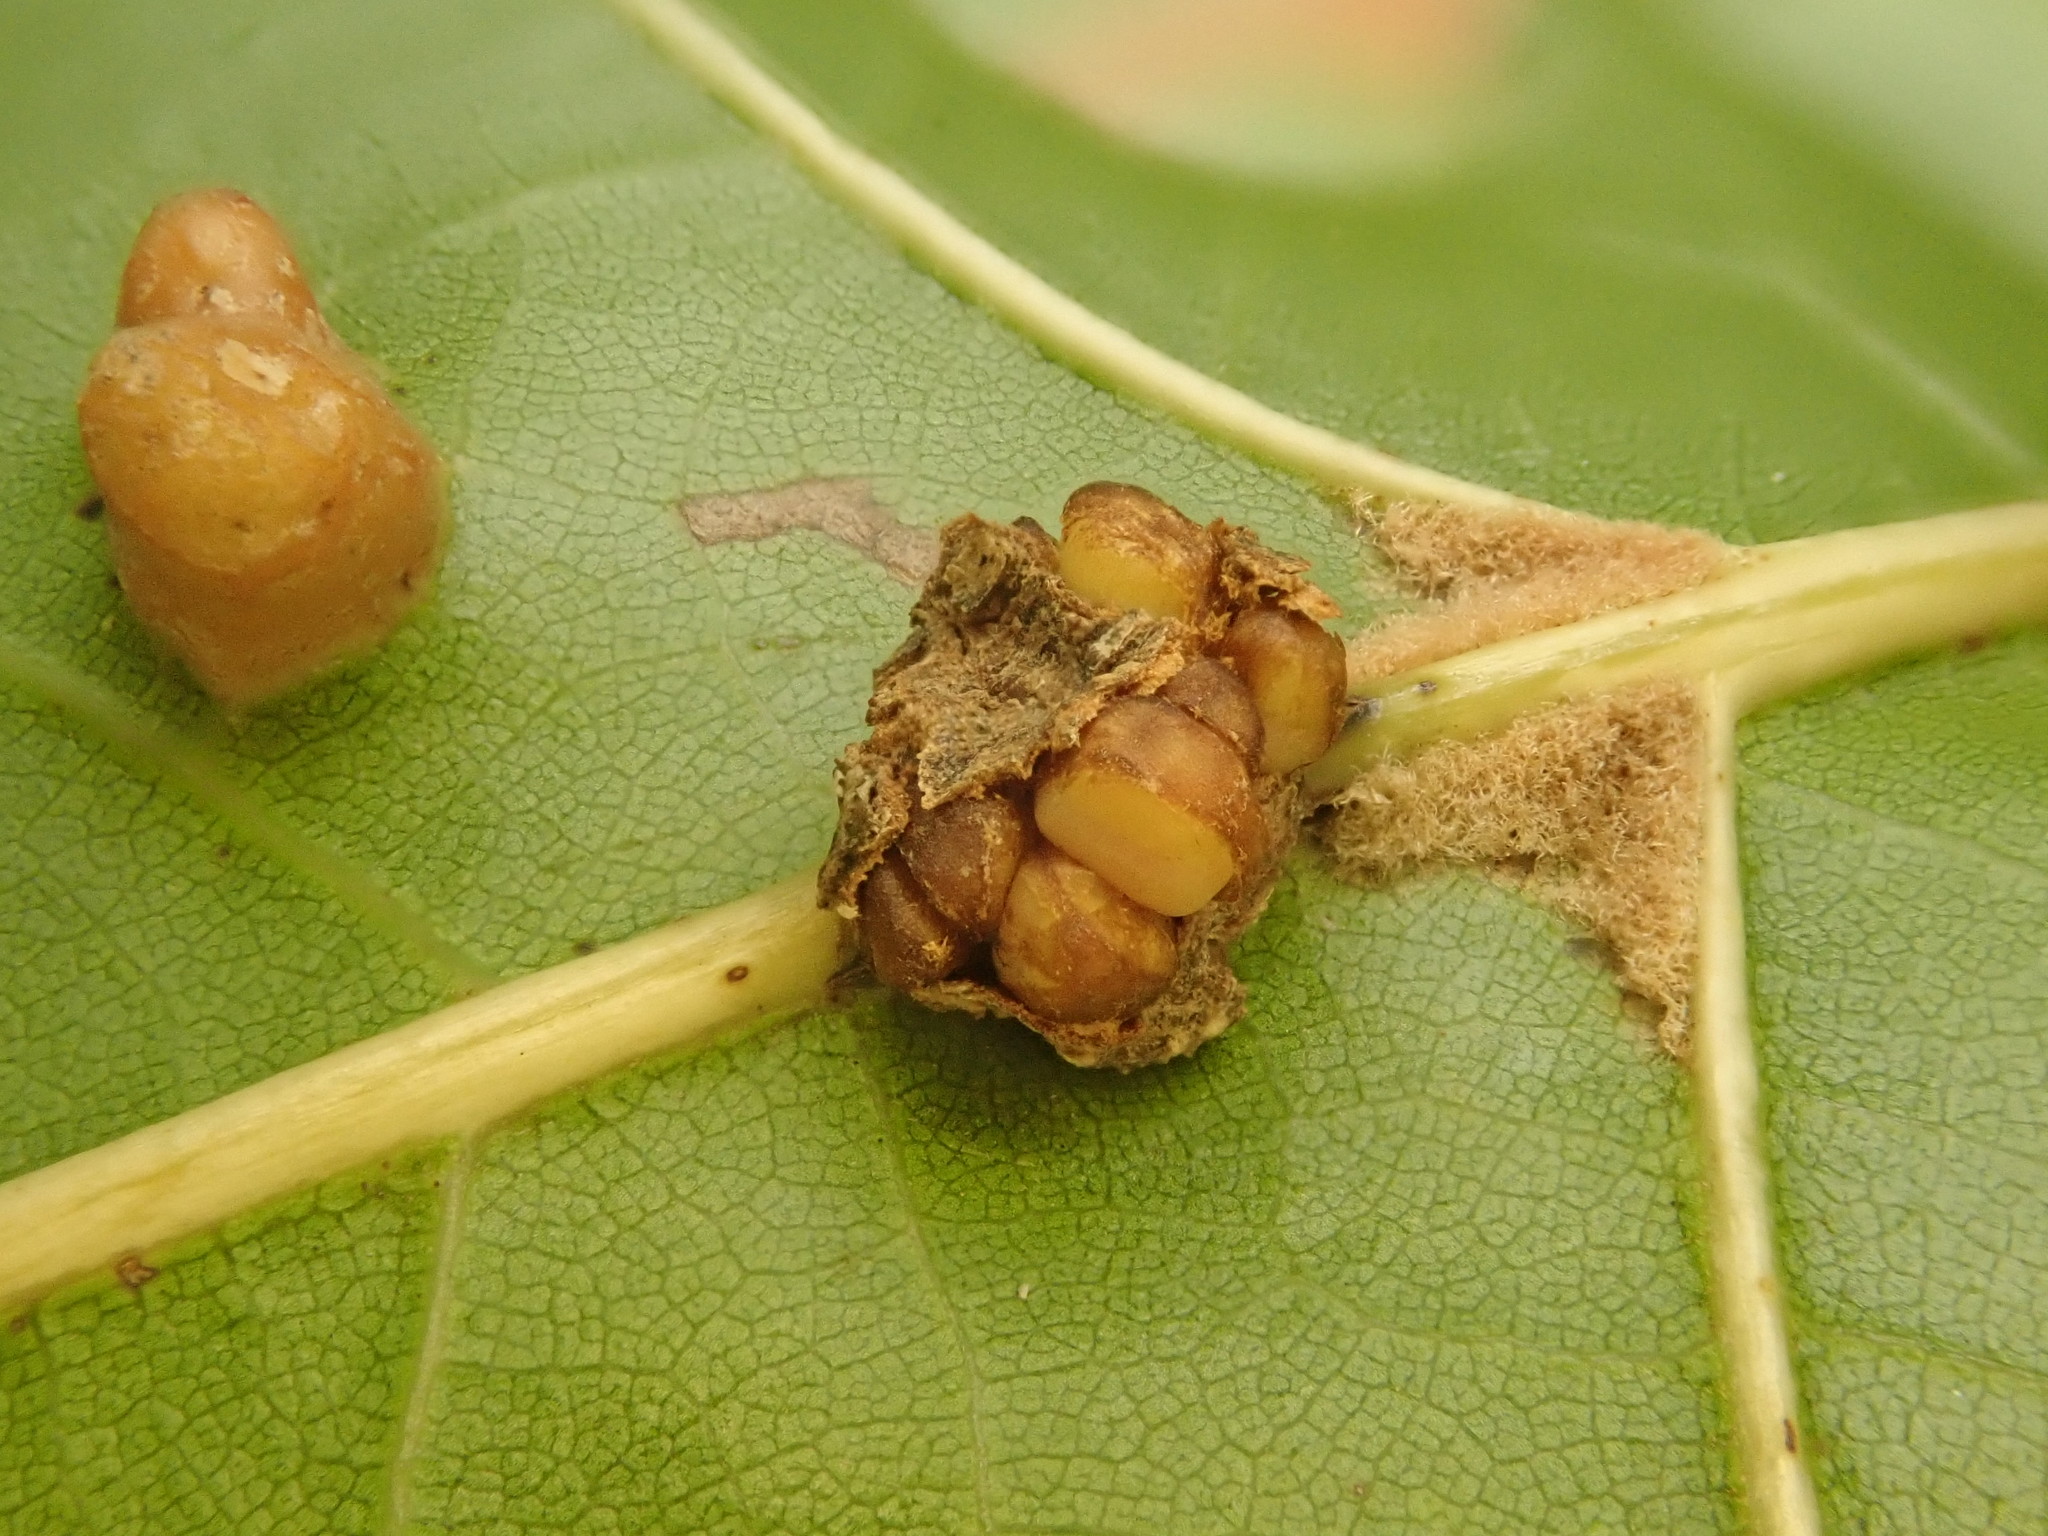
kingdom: Animalia
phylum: Arthropoda
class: Insecta
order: Hymenoptera
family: Cynipidae
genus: Kokkocynips
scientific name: Kokkocynips decidua
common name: Oak wheat gall
